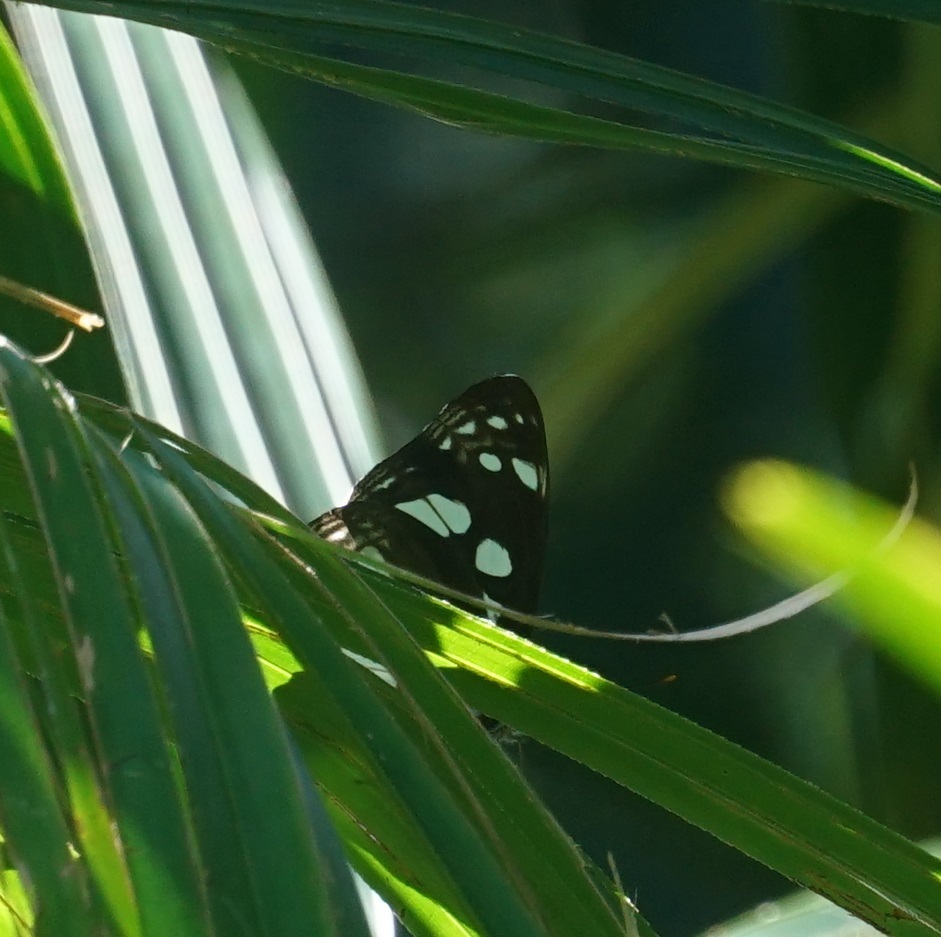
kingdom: Animalia
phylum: Arthropoda
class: Insecta
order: Lepidoptera
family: Nymphalidae
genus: Phaedyma
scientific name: Phaedyma shepherdi
